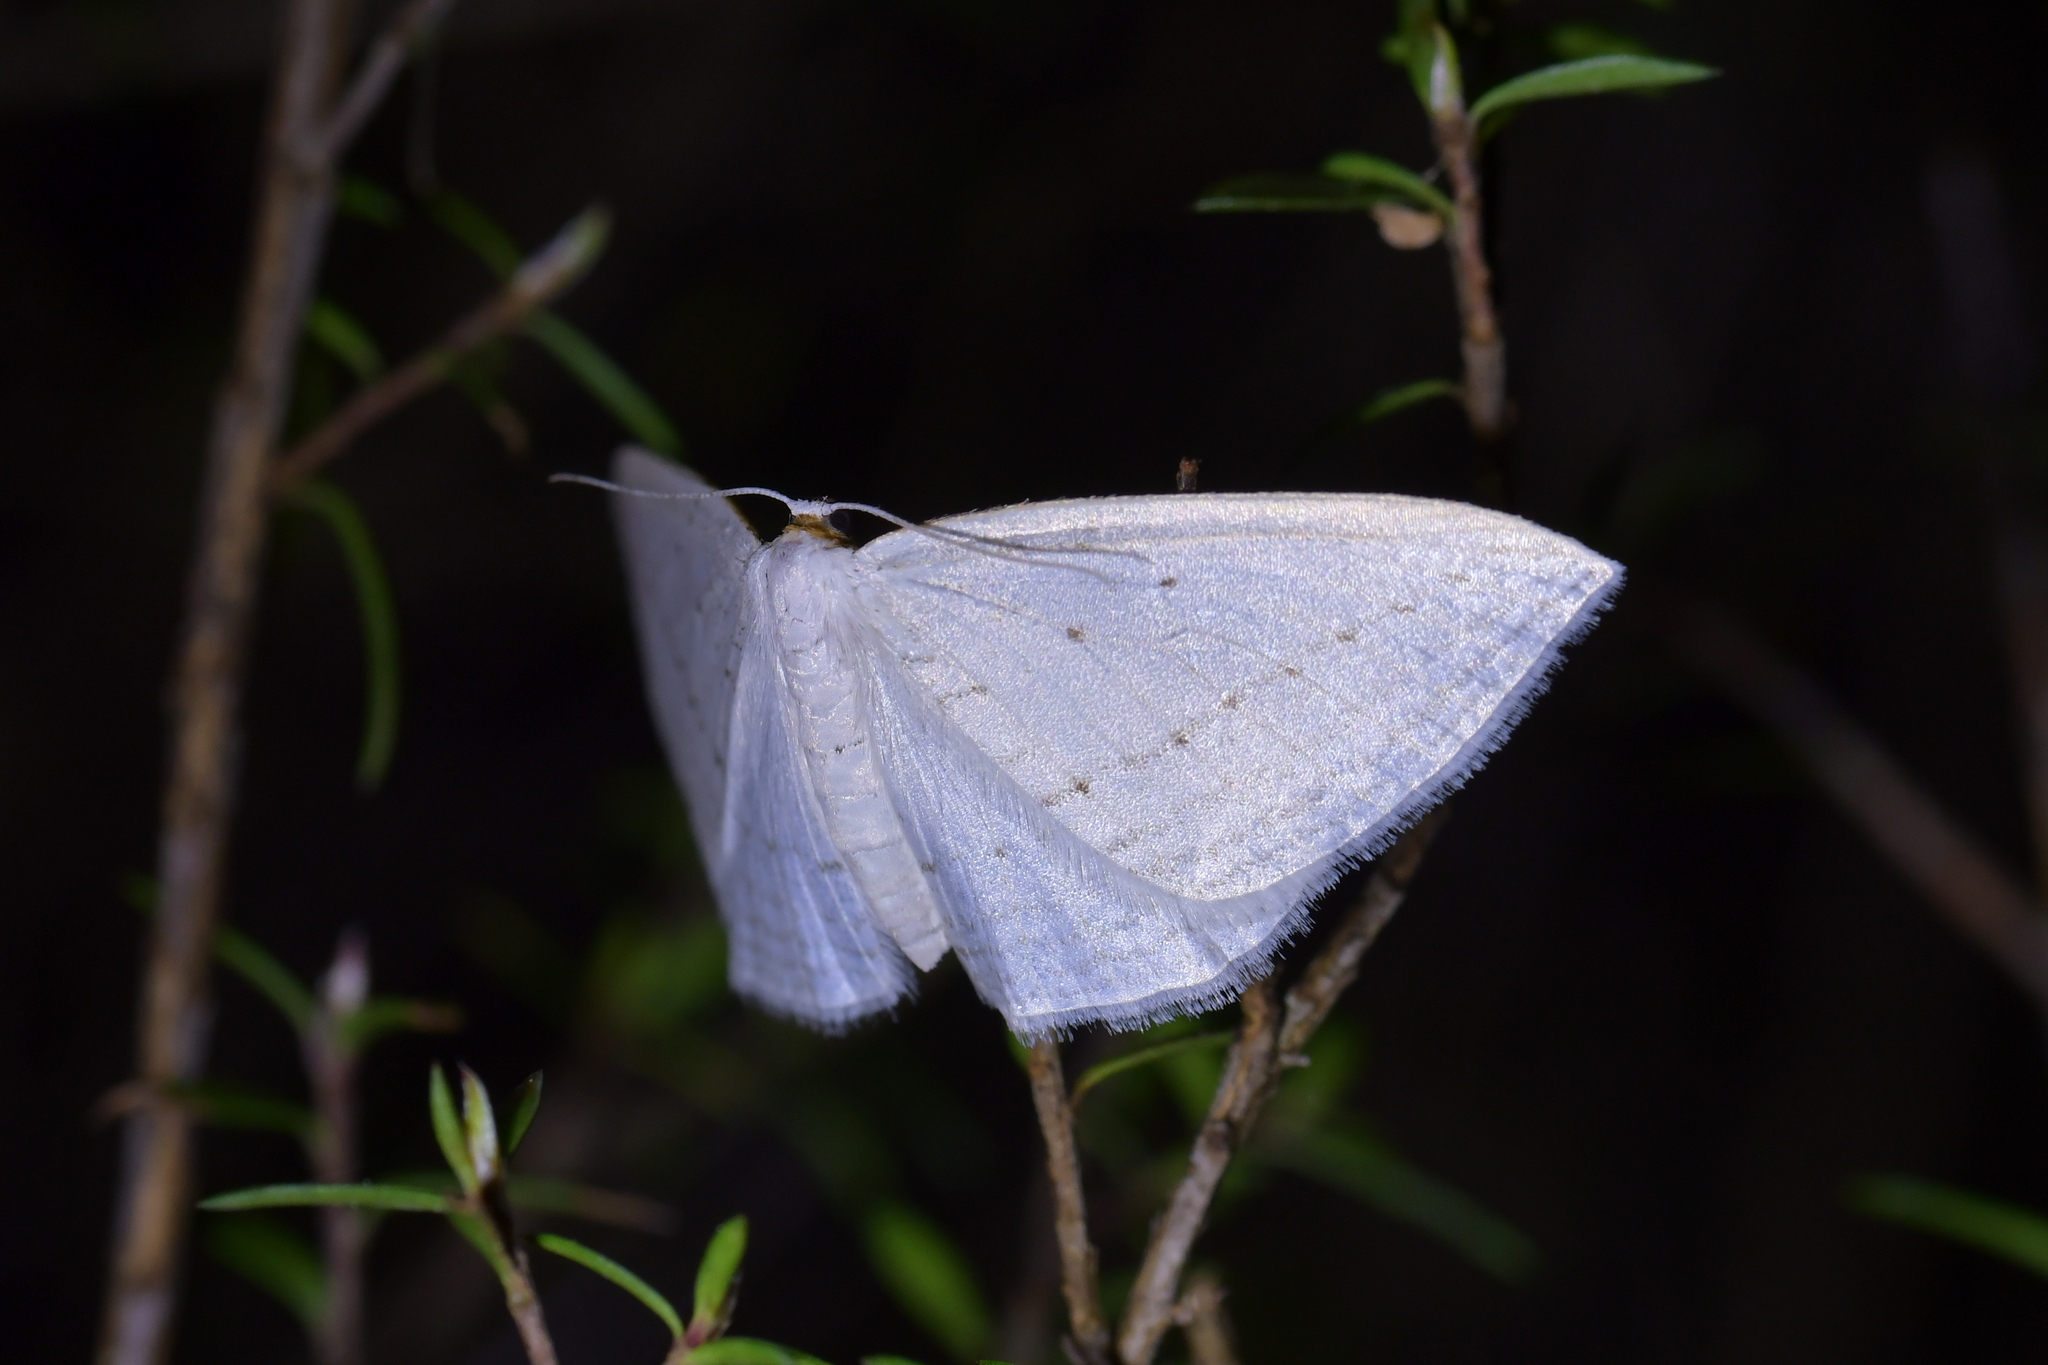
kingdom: Animalia
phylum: Arthropoda
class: Insecta
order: Lepidoptera
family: Geometridae
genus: Orthoclydon
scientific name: Orthoclydon praefectata
